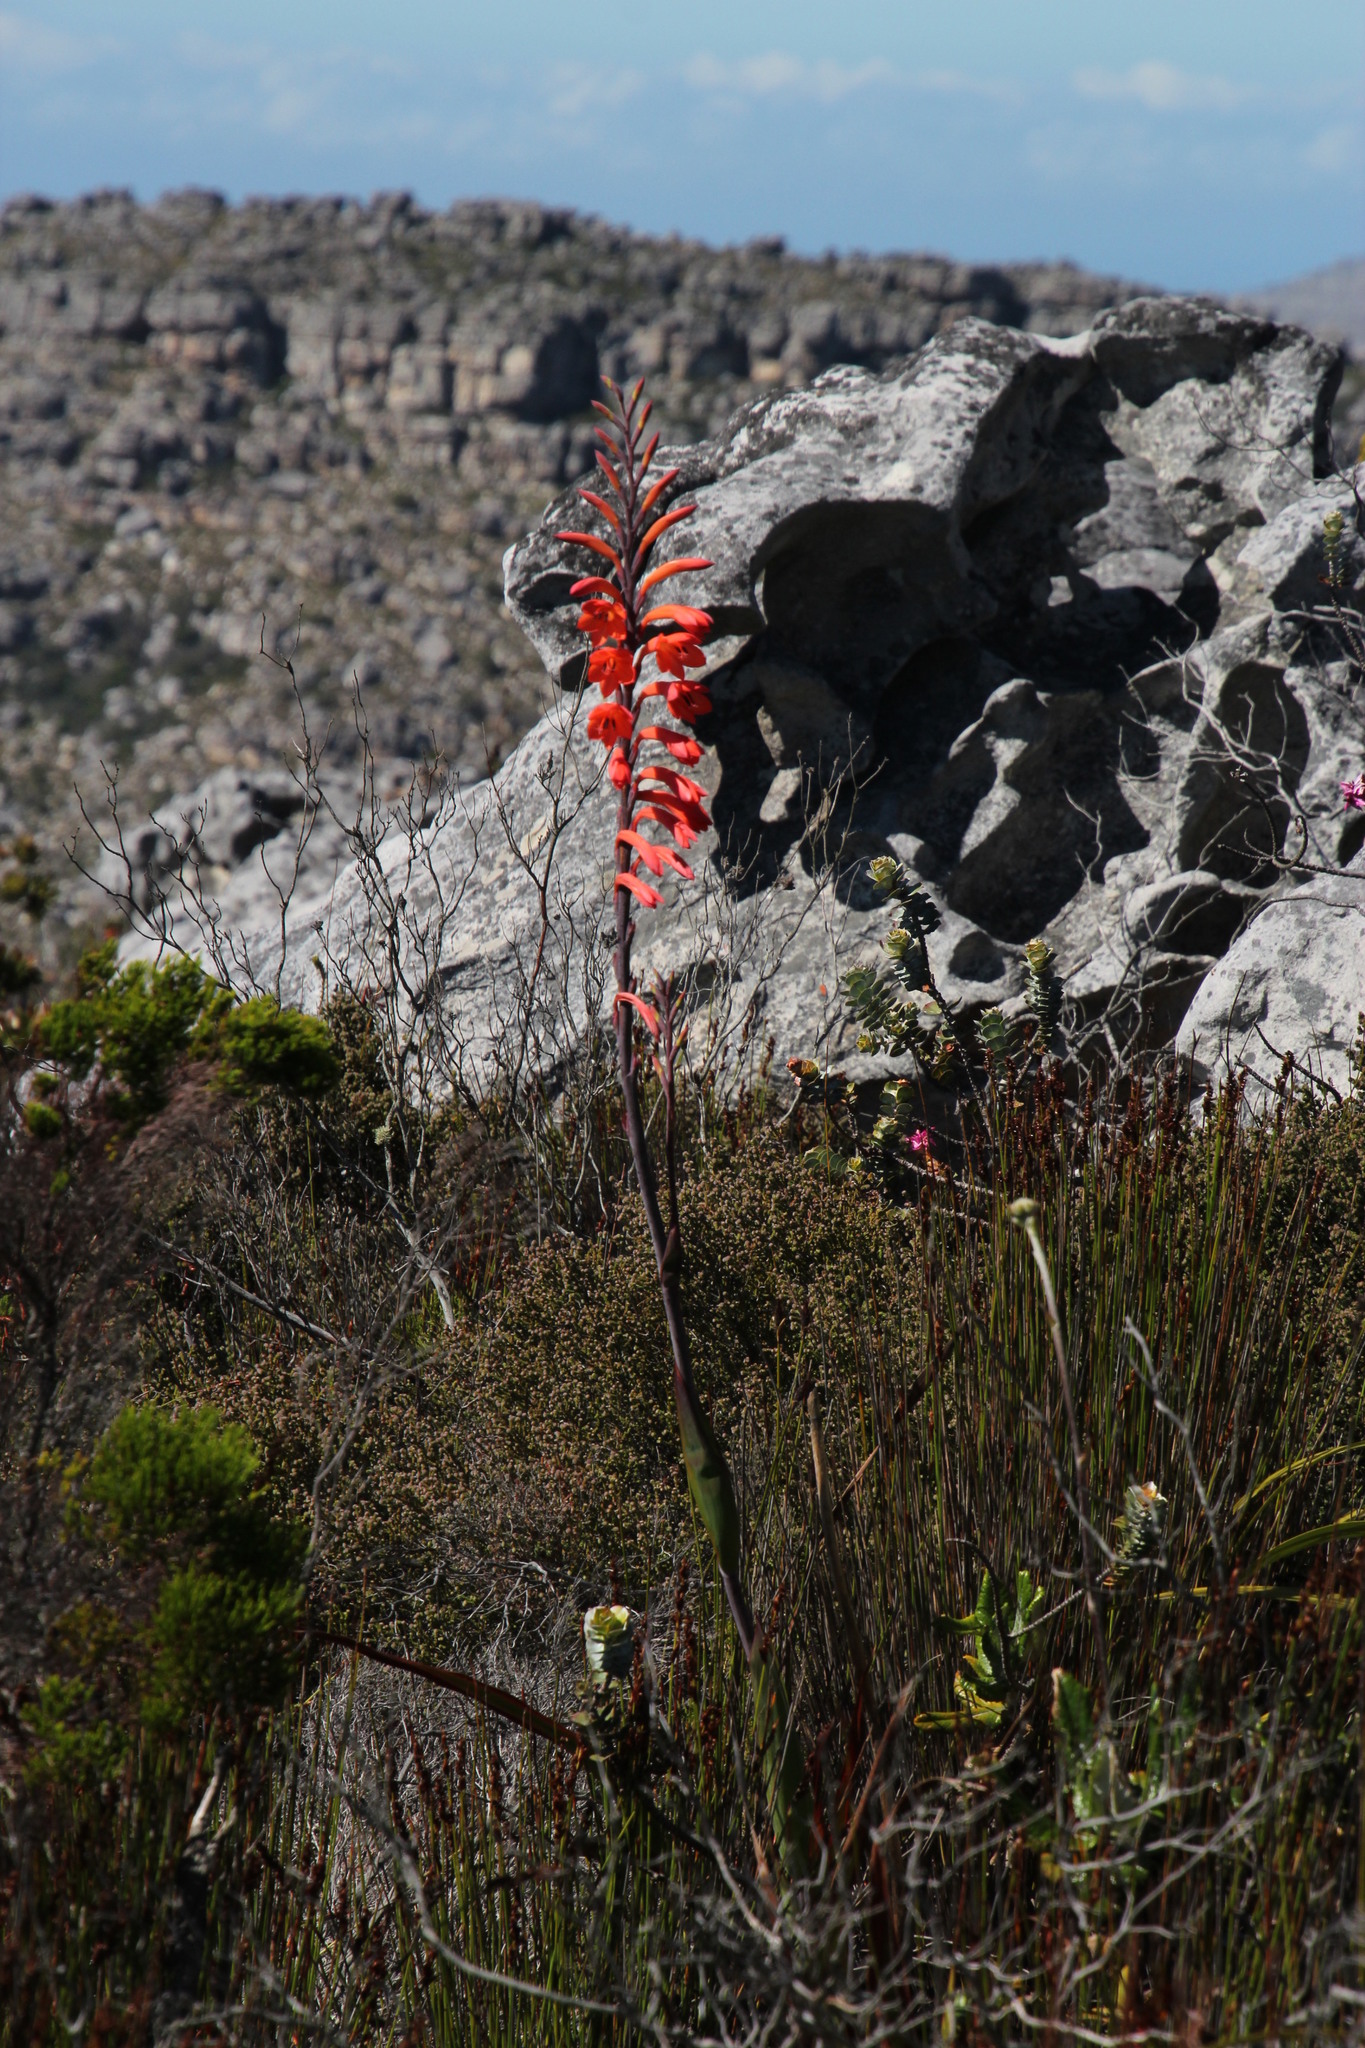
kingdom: Plantae
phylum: Tracheophyta
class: Liliopsida
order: Asparagales
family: Iridaceae
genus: Watsonia
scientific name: Watsonia tabularis
